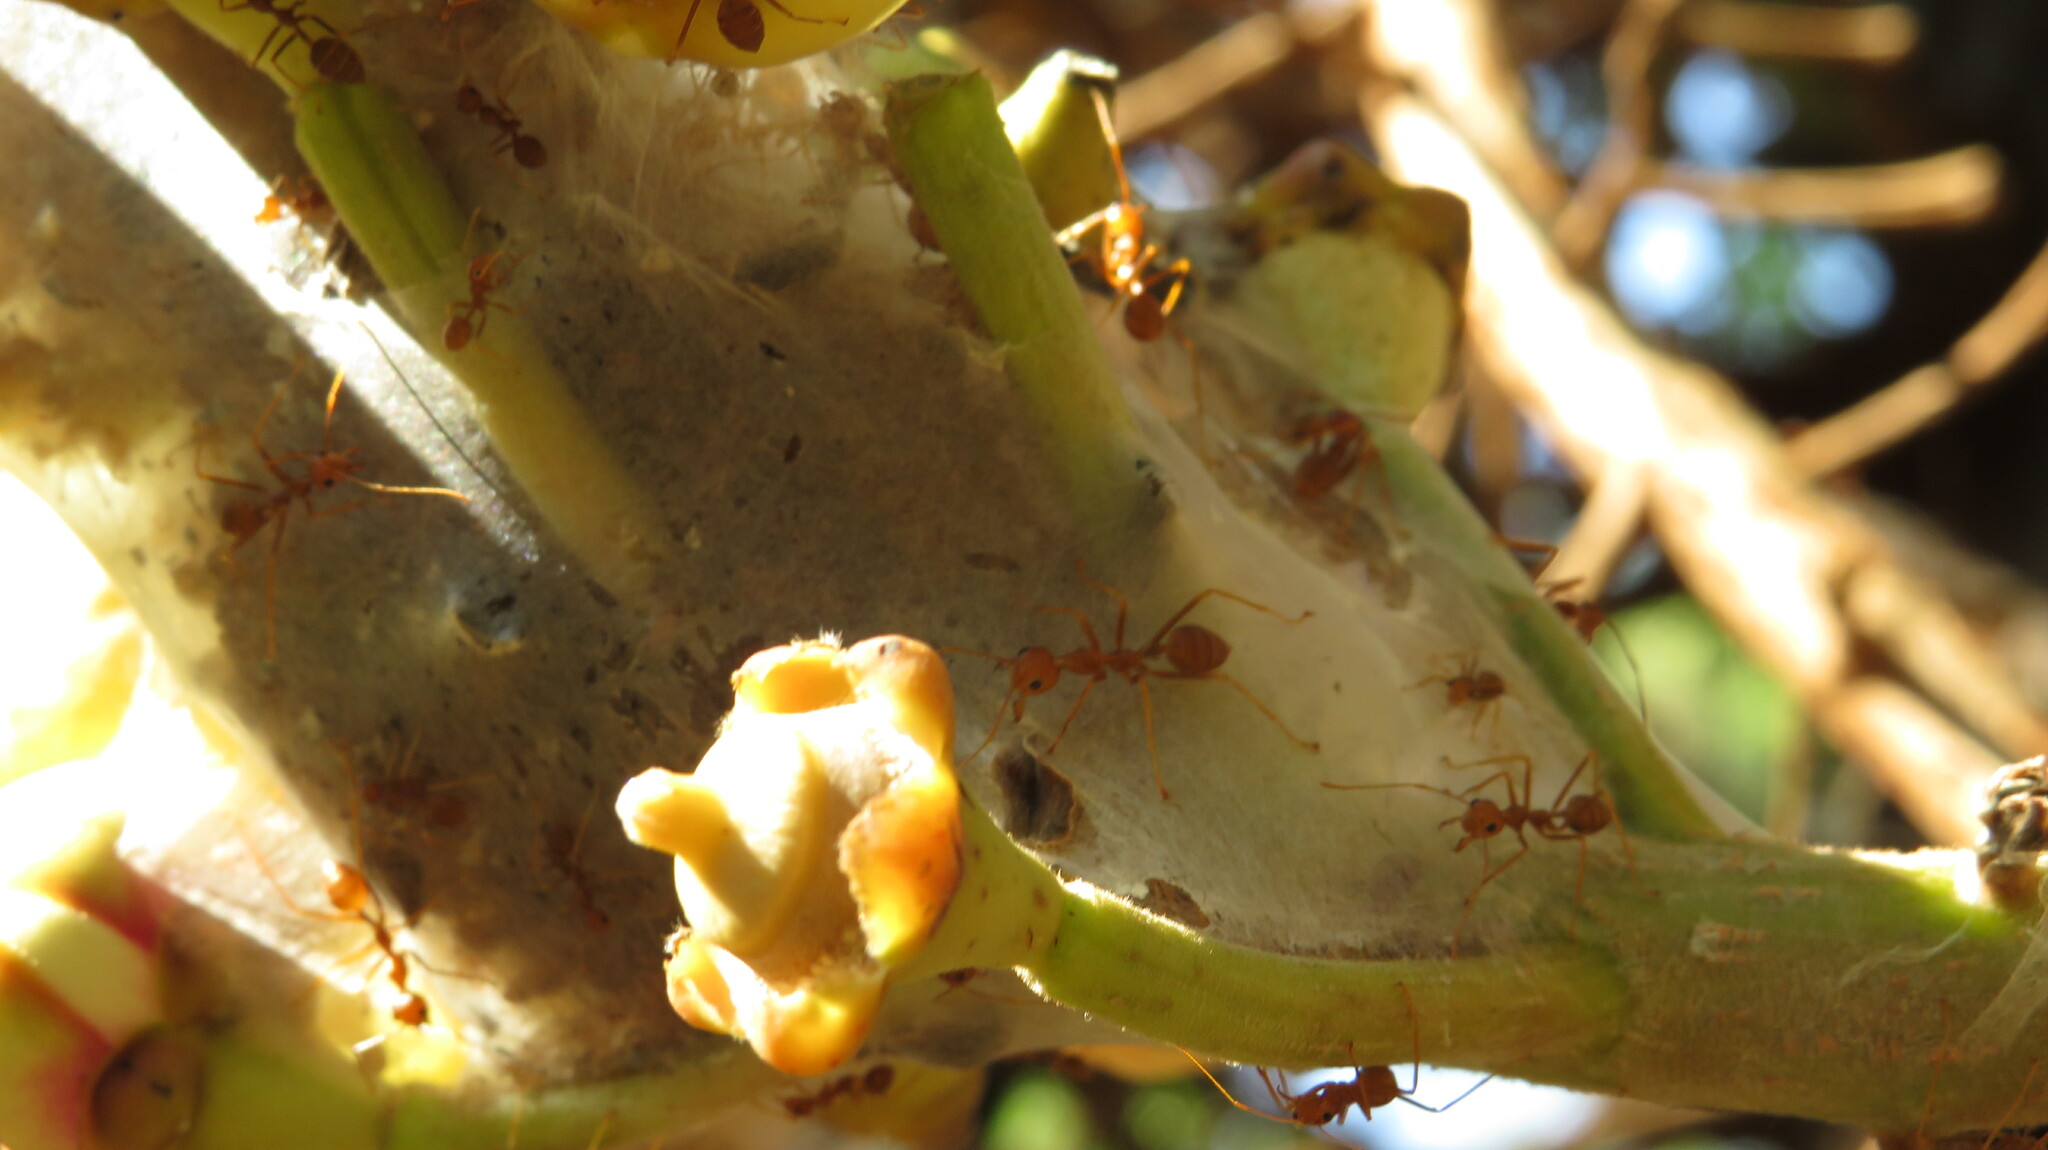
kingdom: Animalia
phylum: Arthropoda
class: Insecta
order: Hymenoptera
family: Formicidae
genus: Oecophylla
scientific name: Oecophylla smaragdina
